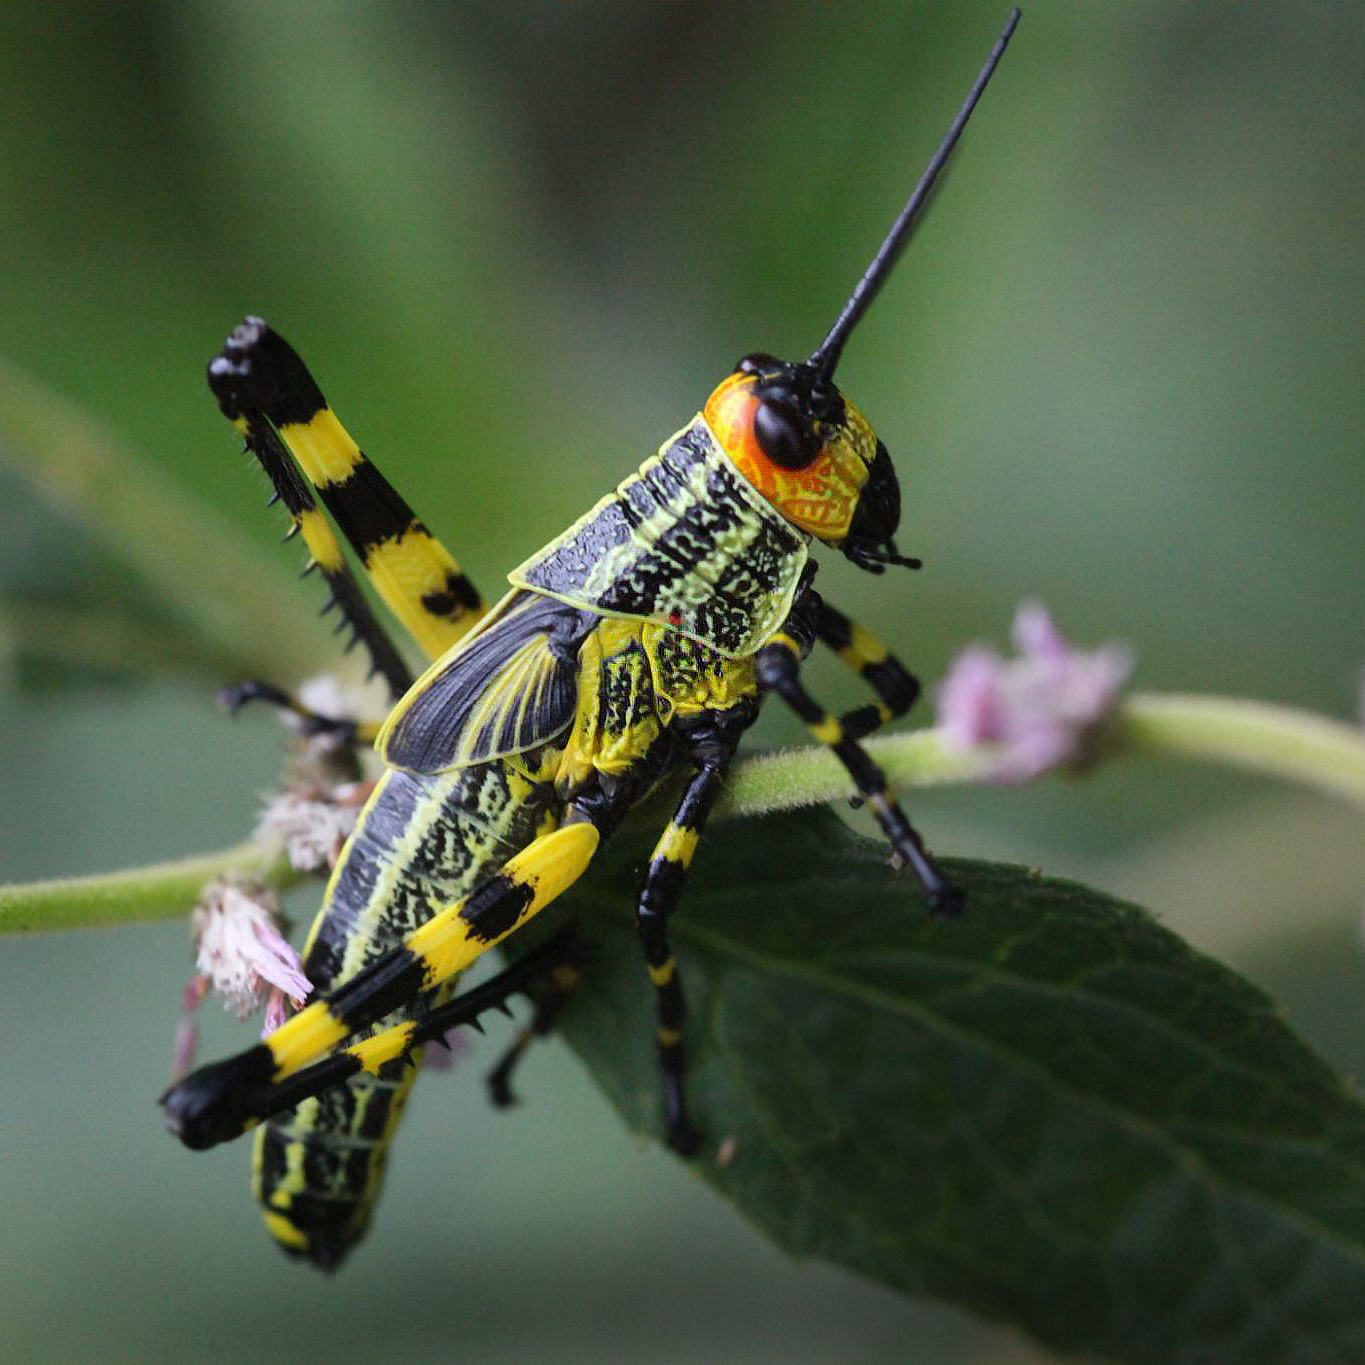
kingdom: Animalia
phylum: Arthropoda
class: Insecta
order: Orthoptera
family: Romaleidae
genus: Zoniopoda
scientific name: Zoniopoda tarsata
